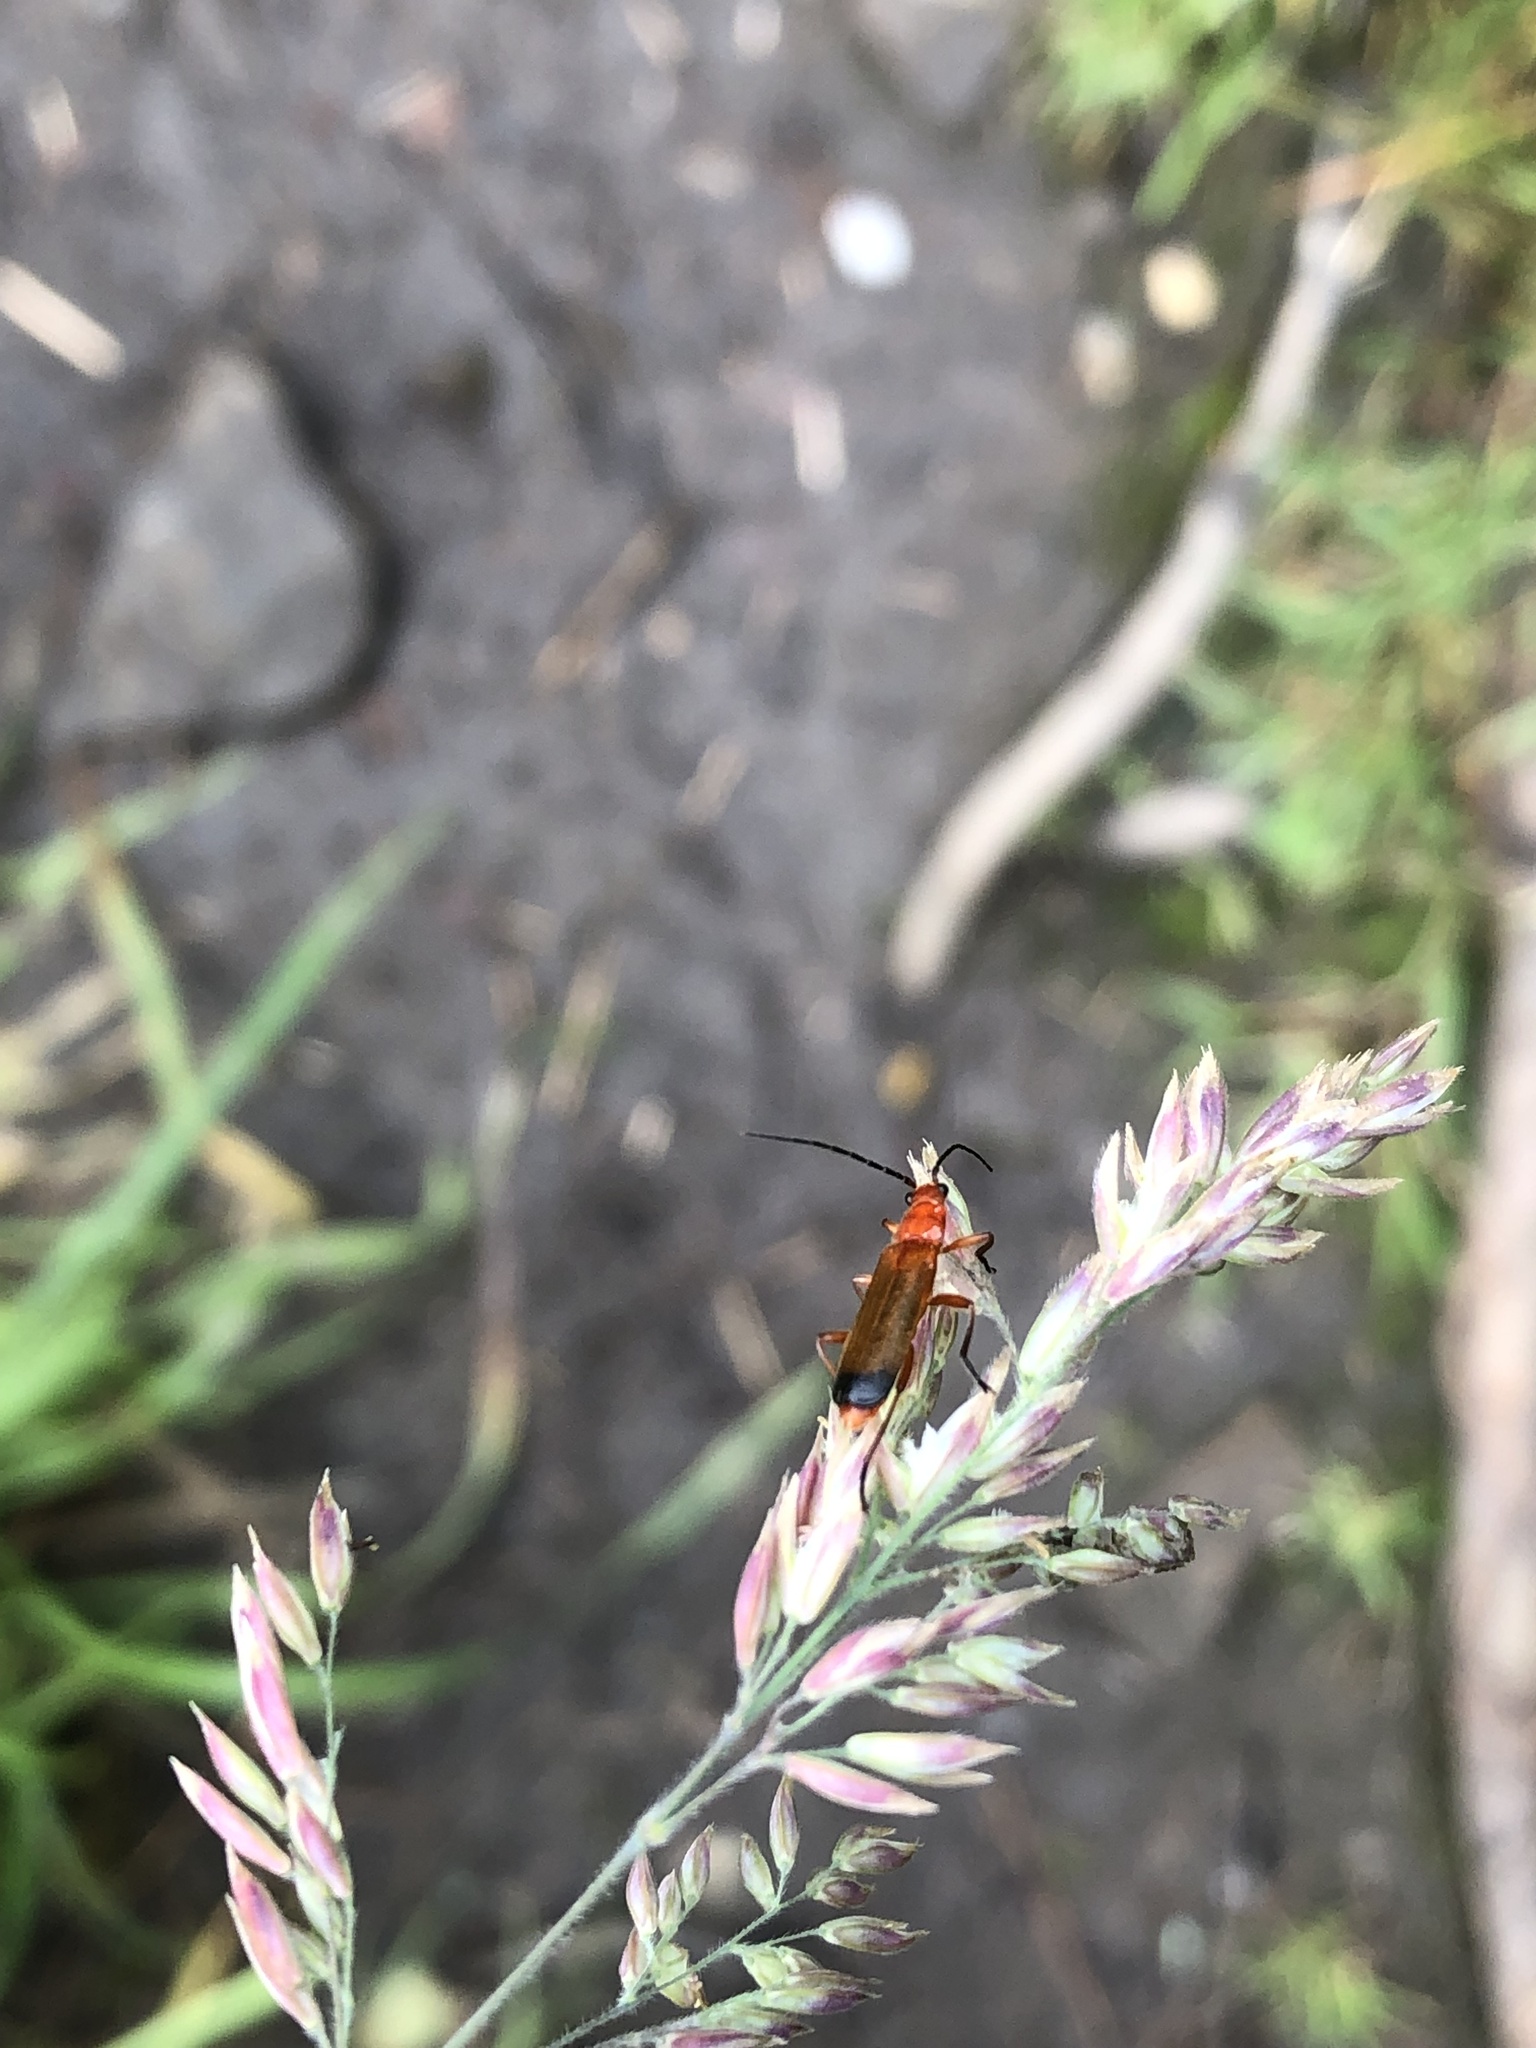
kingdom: Animalia
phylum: Arthropoda
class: Insecta
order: Coleoptera
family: Cantharidae
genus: Rhagonycha
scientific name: Rhagonycha fulva
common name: Common red soldier beetle
